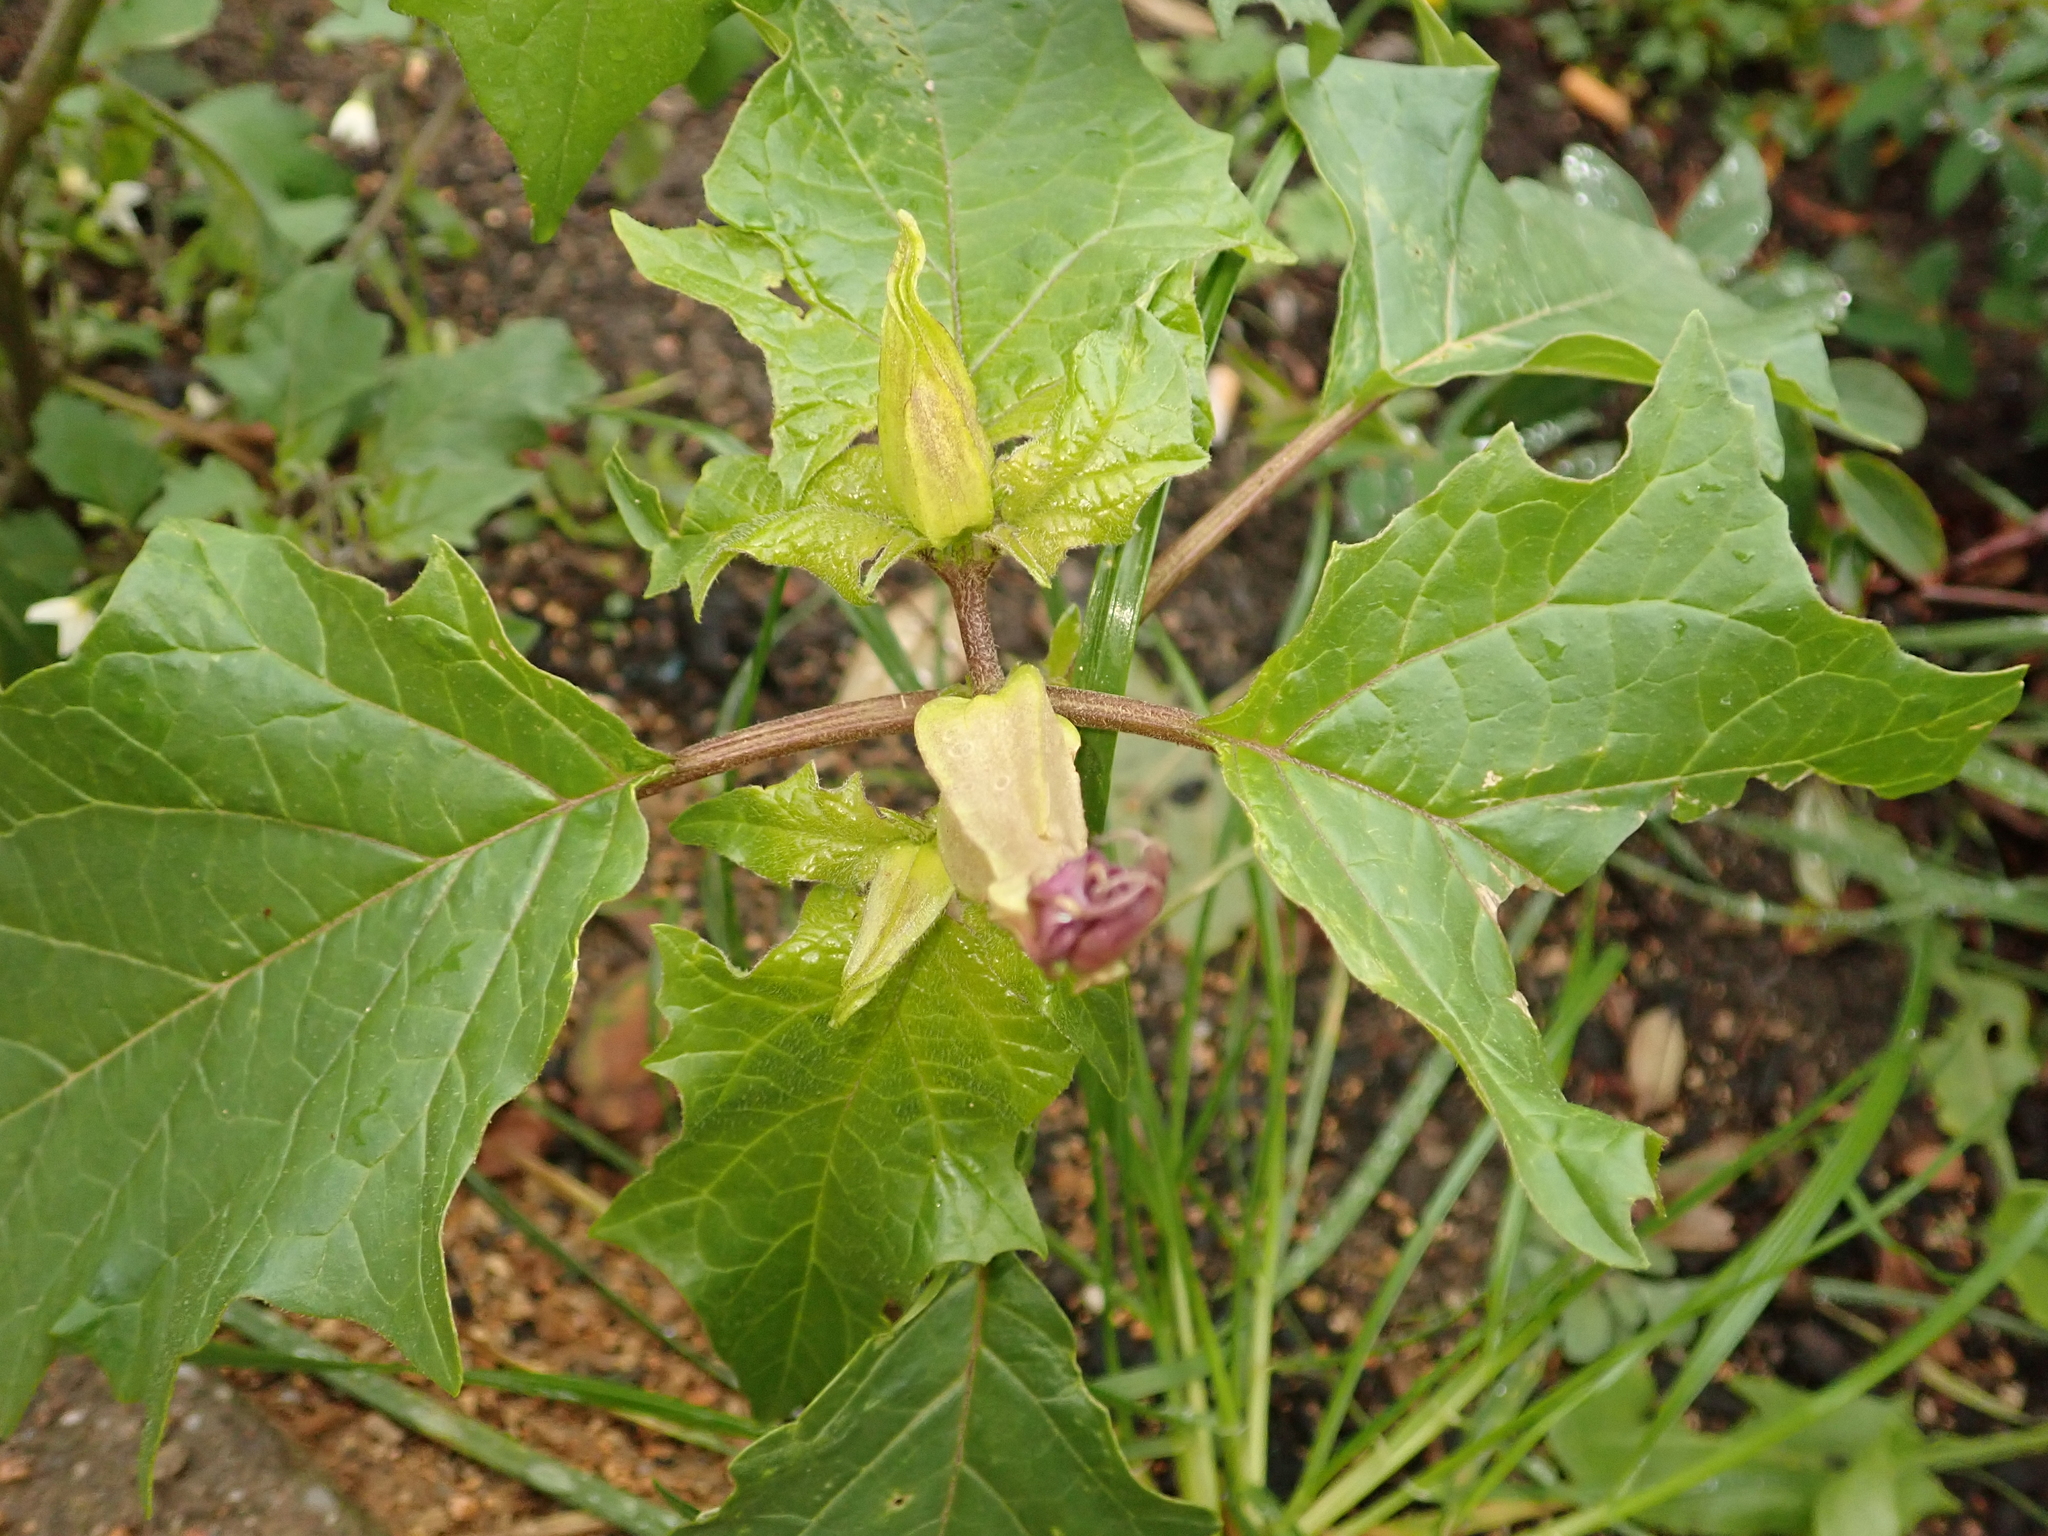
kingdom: Plantae
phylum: Tracheophyta
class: Magnoliopsida
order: Solanales
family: Solanaceae
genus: Datura
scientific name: Datura stramonium
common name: Thorn-apple
